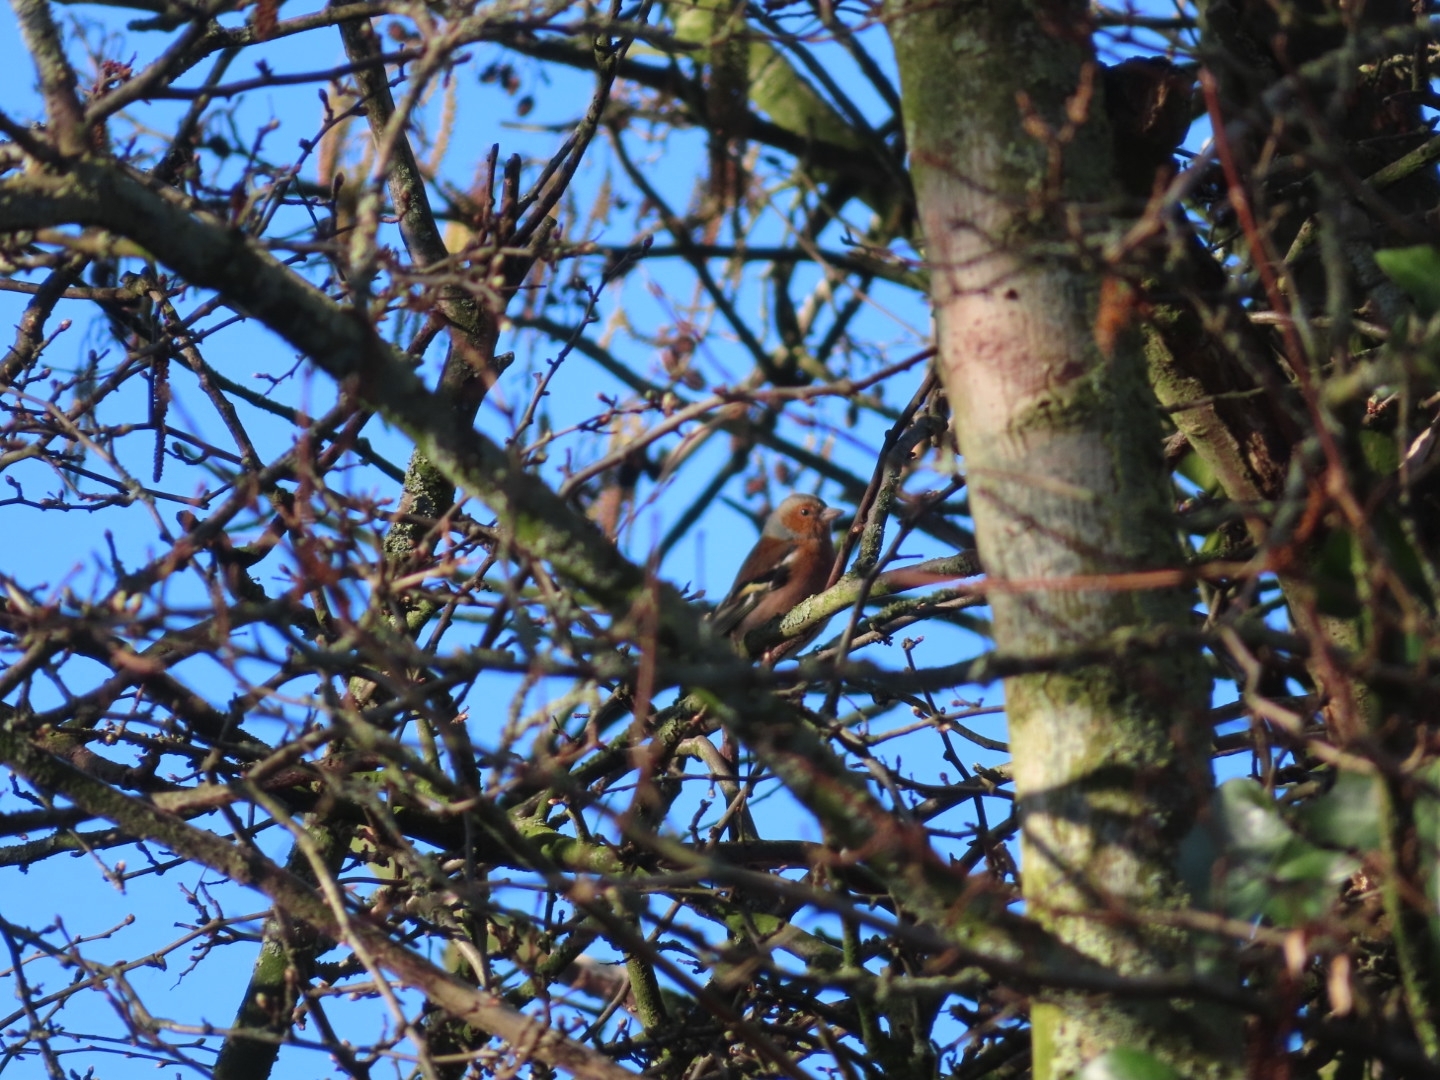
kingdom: Animalia
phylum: Chordata
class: Aves
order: Passeriformes
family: Fringillidae
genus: Fringilla
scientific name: Fringilla coelebs
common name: Common chaffinch
